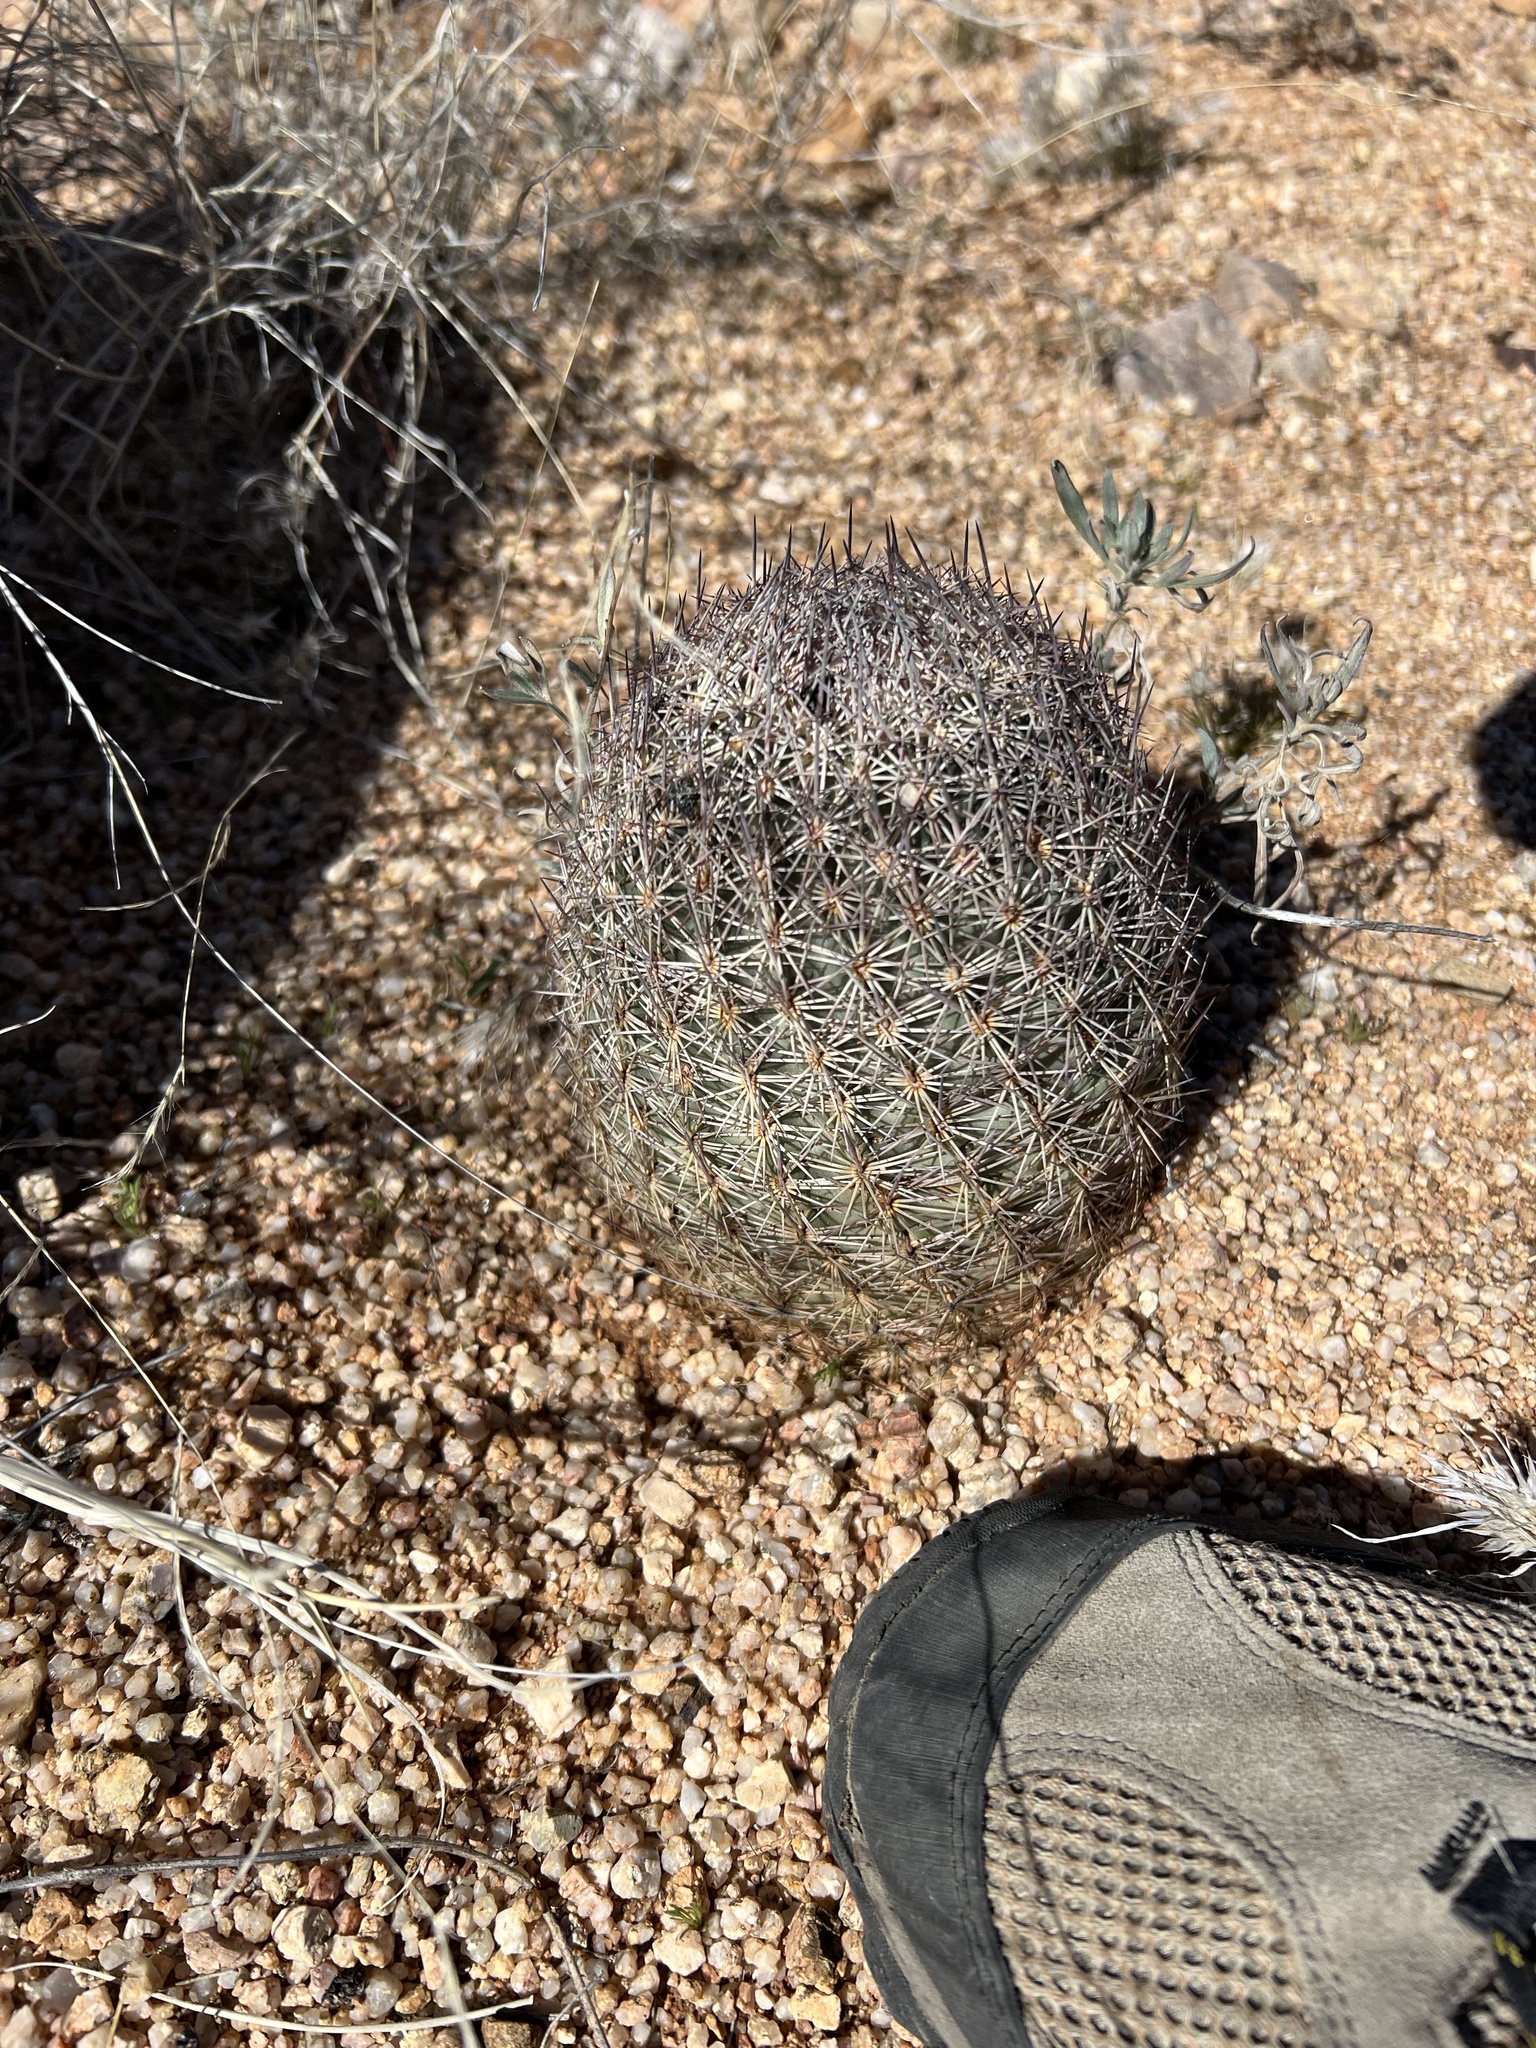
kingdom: Plantae
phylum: Tracheophyta
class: Magnoliopsida
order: Caryophyllales
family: Cactaceae
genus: Sclerocactus
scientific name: Sclerocactus johnsonii
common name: Eight-spine fishhook cactus
